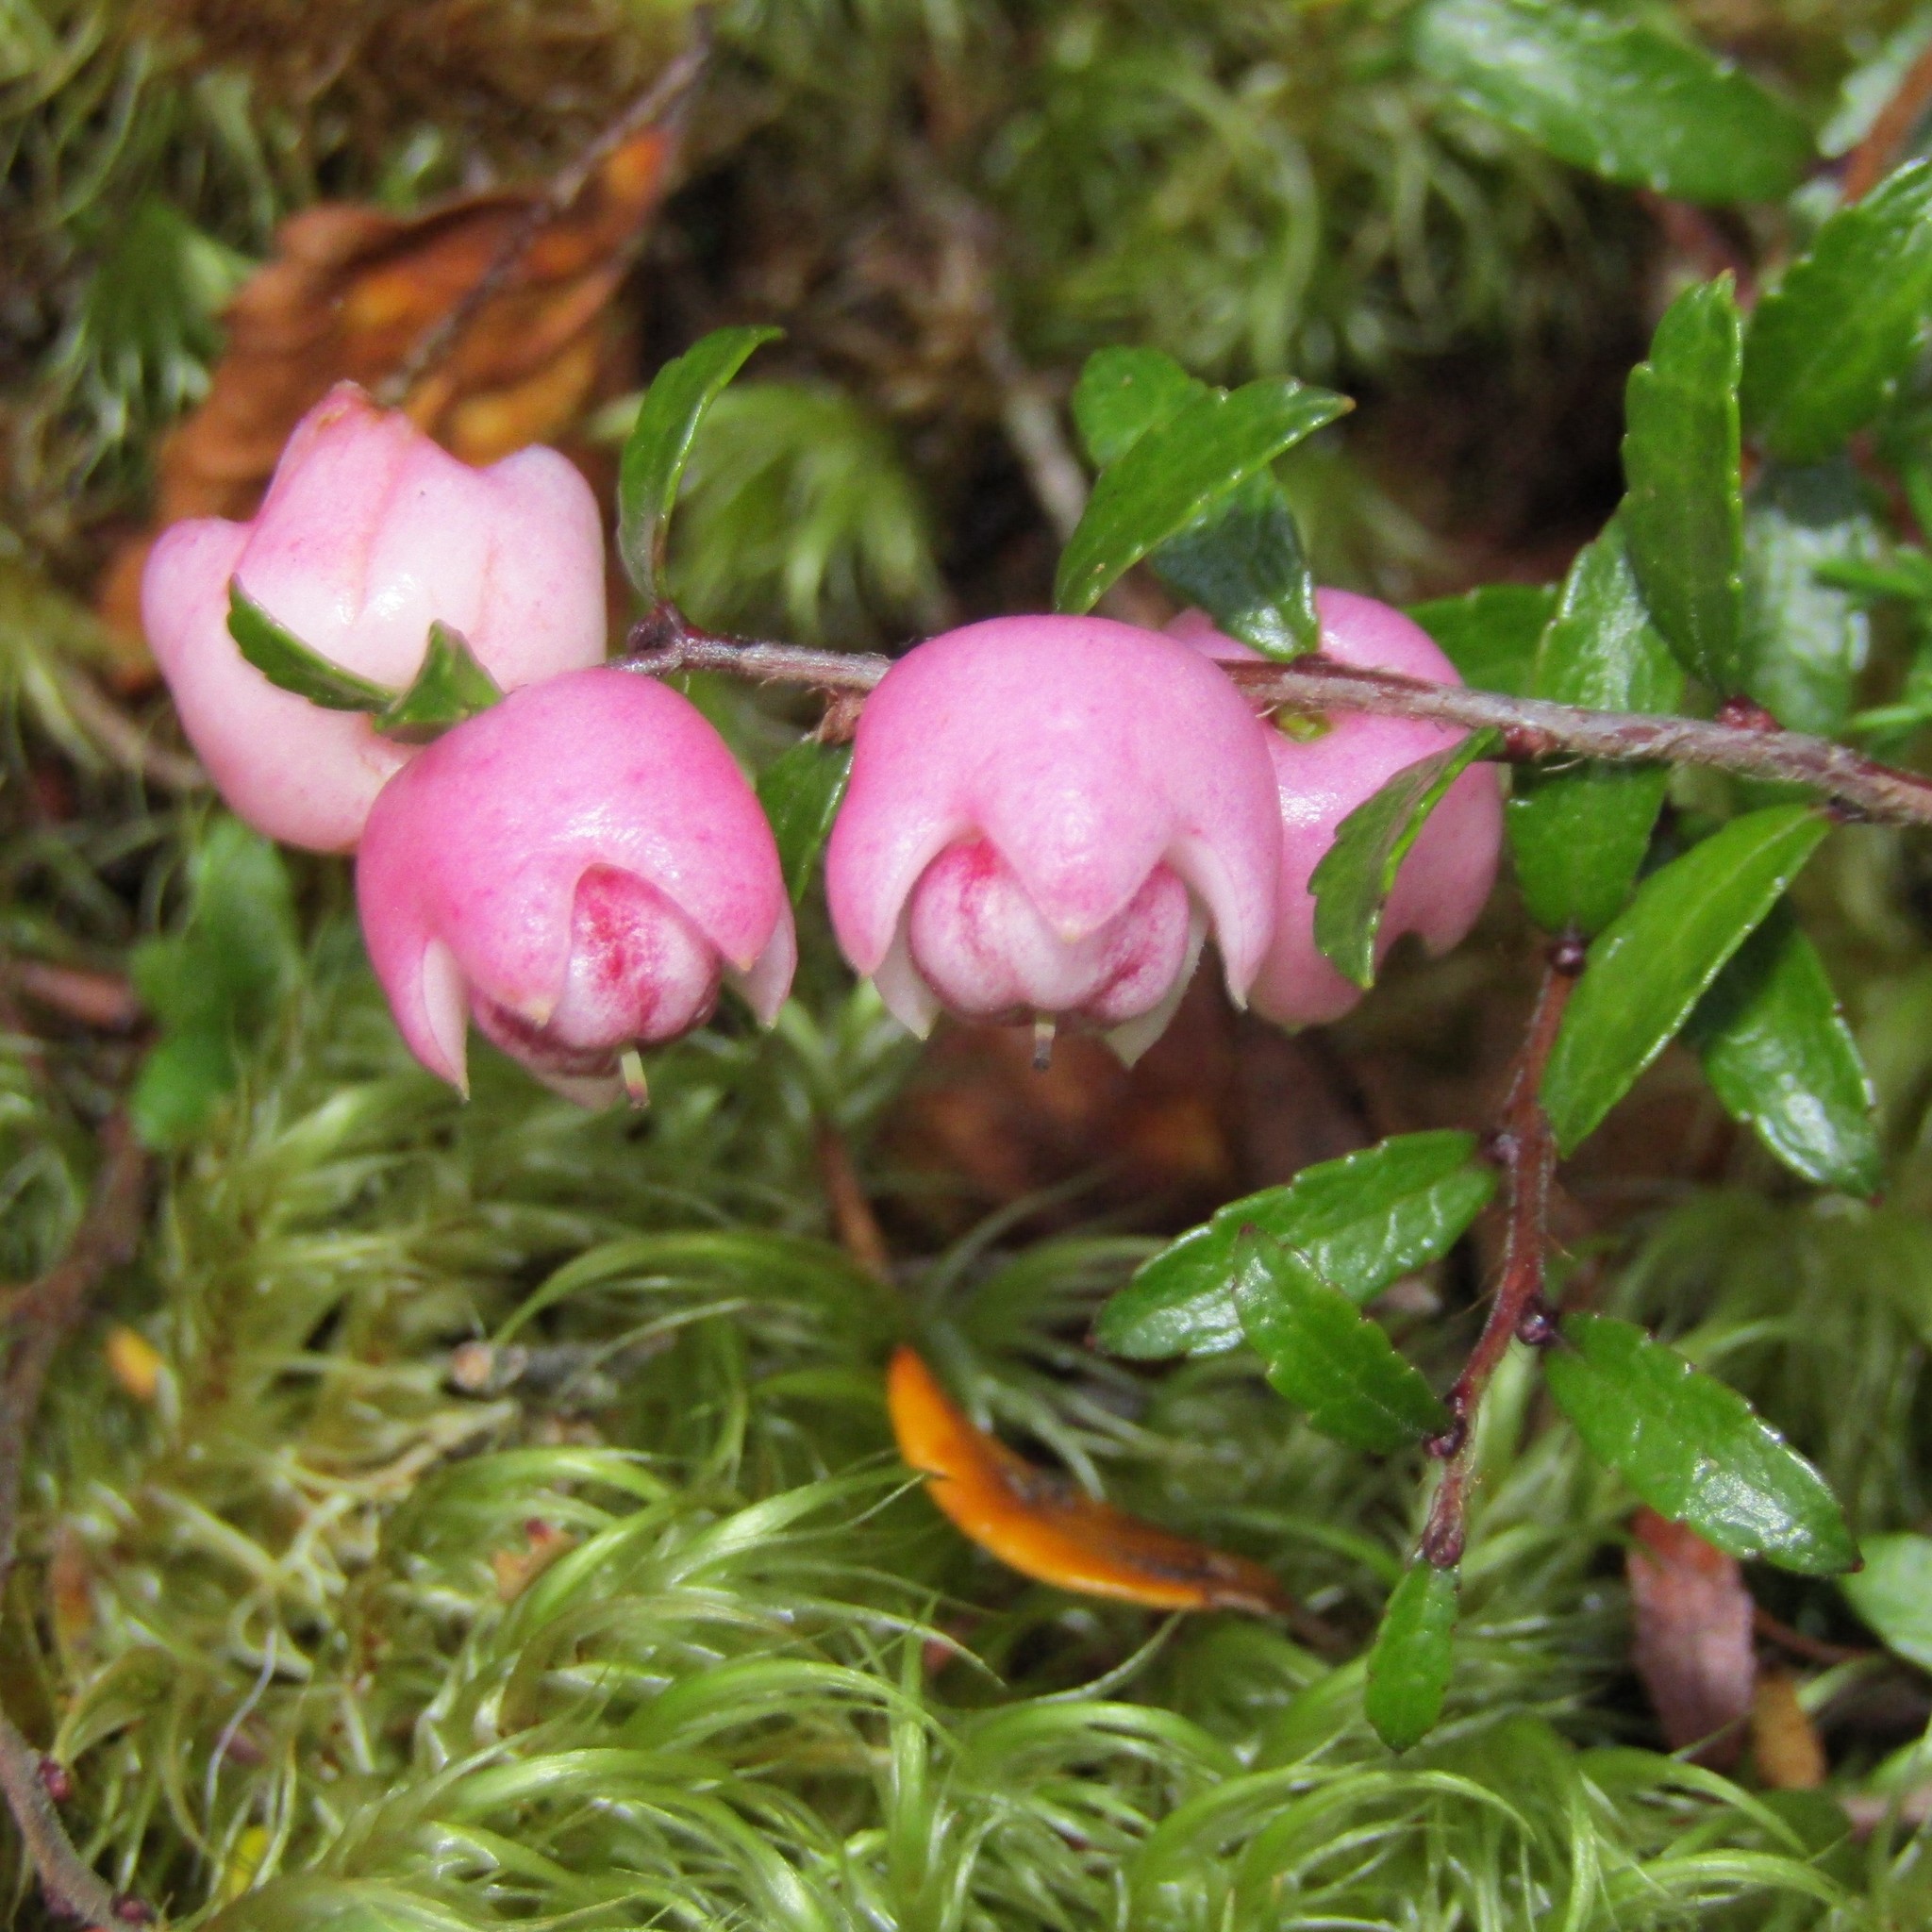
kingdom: Plantae
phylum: Tracheophyta
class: Magnoliopsida
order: Ericales
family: Ericaceae
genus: Gaultheria
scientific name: Gaultheria macrostigma
